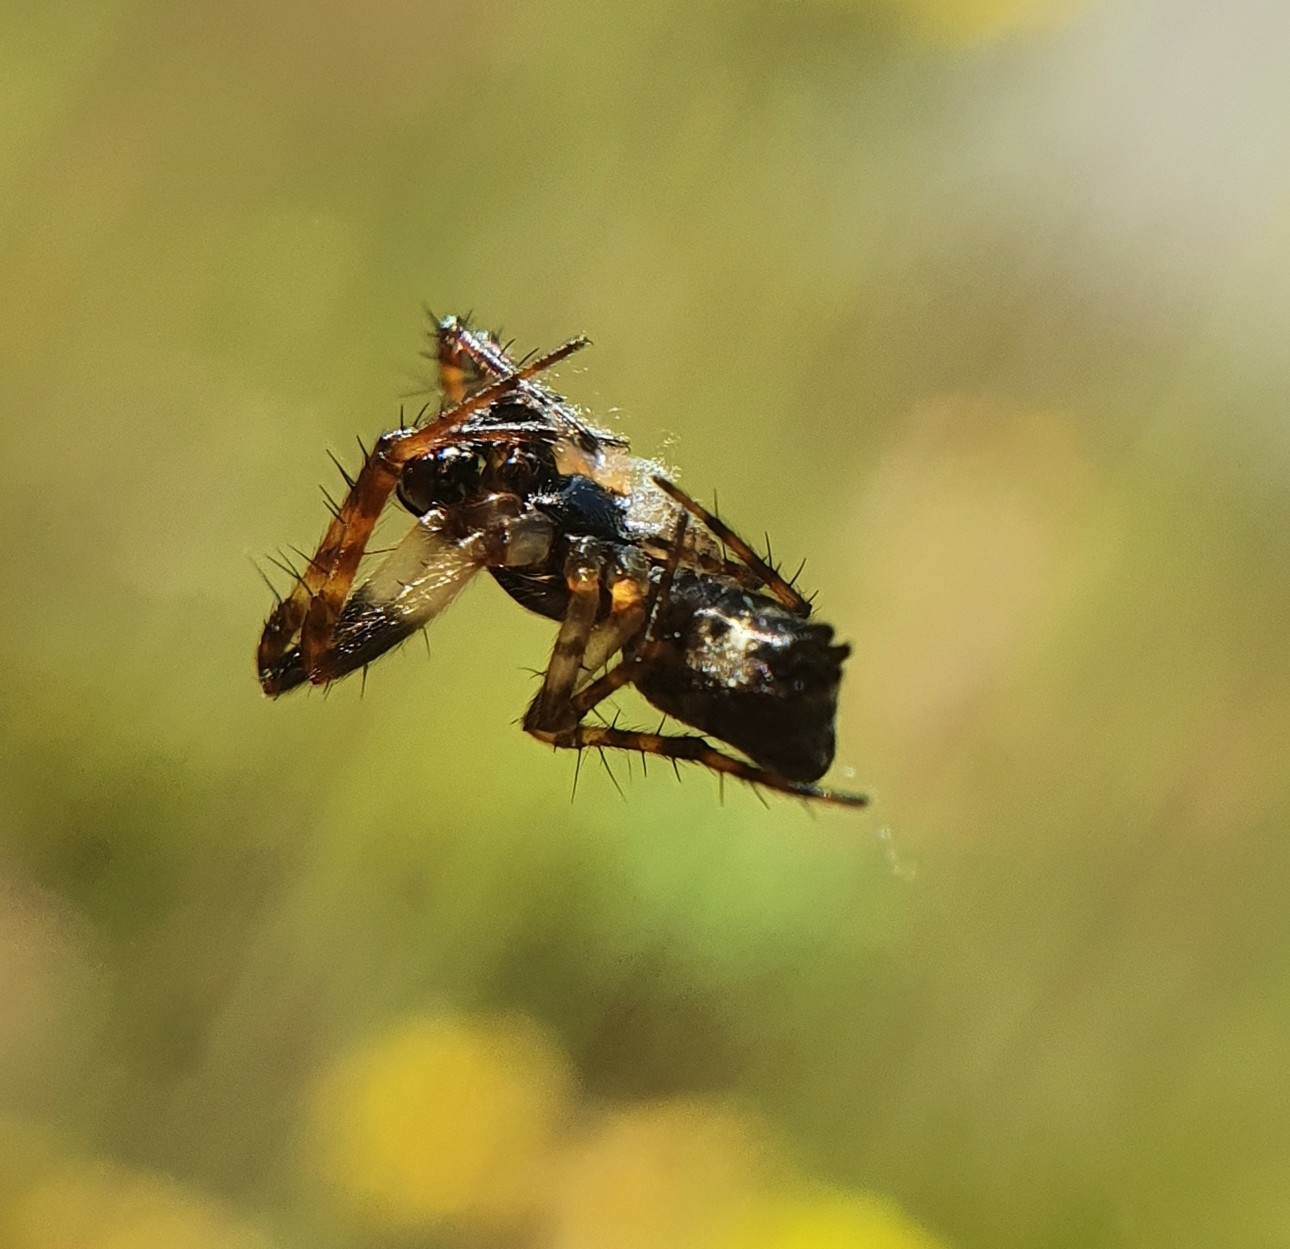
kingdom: Animalia
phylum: Arthropoda
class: Arachnida
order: Araneae
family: Araneidae
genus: Cyclosa
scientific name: Cyclosa conica
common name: Conical trashline orbweaver
